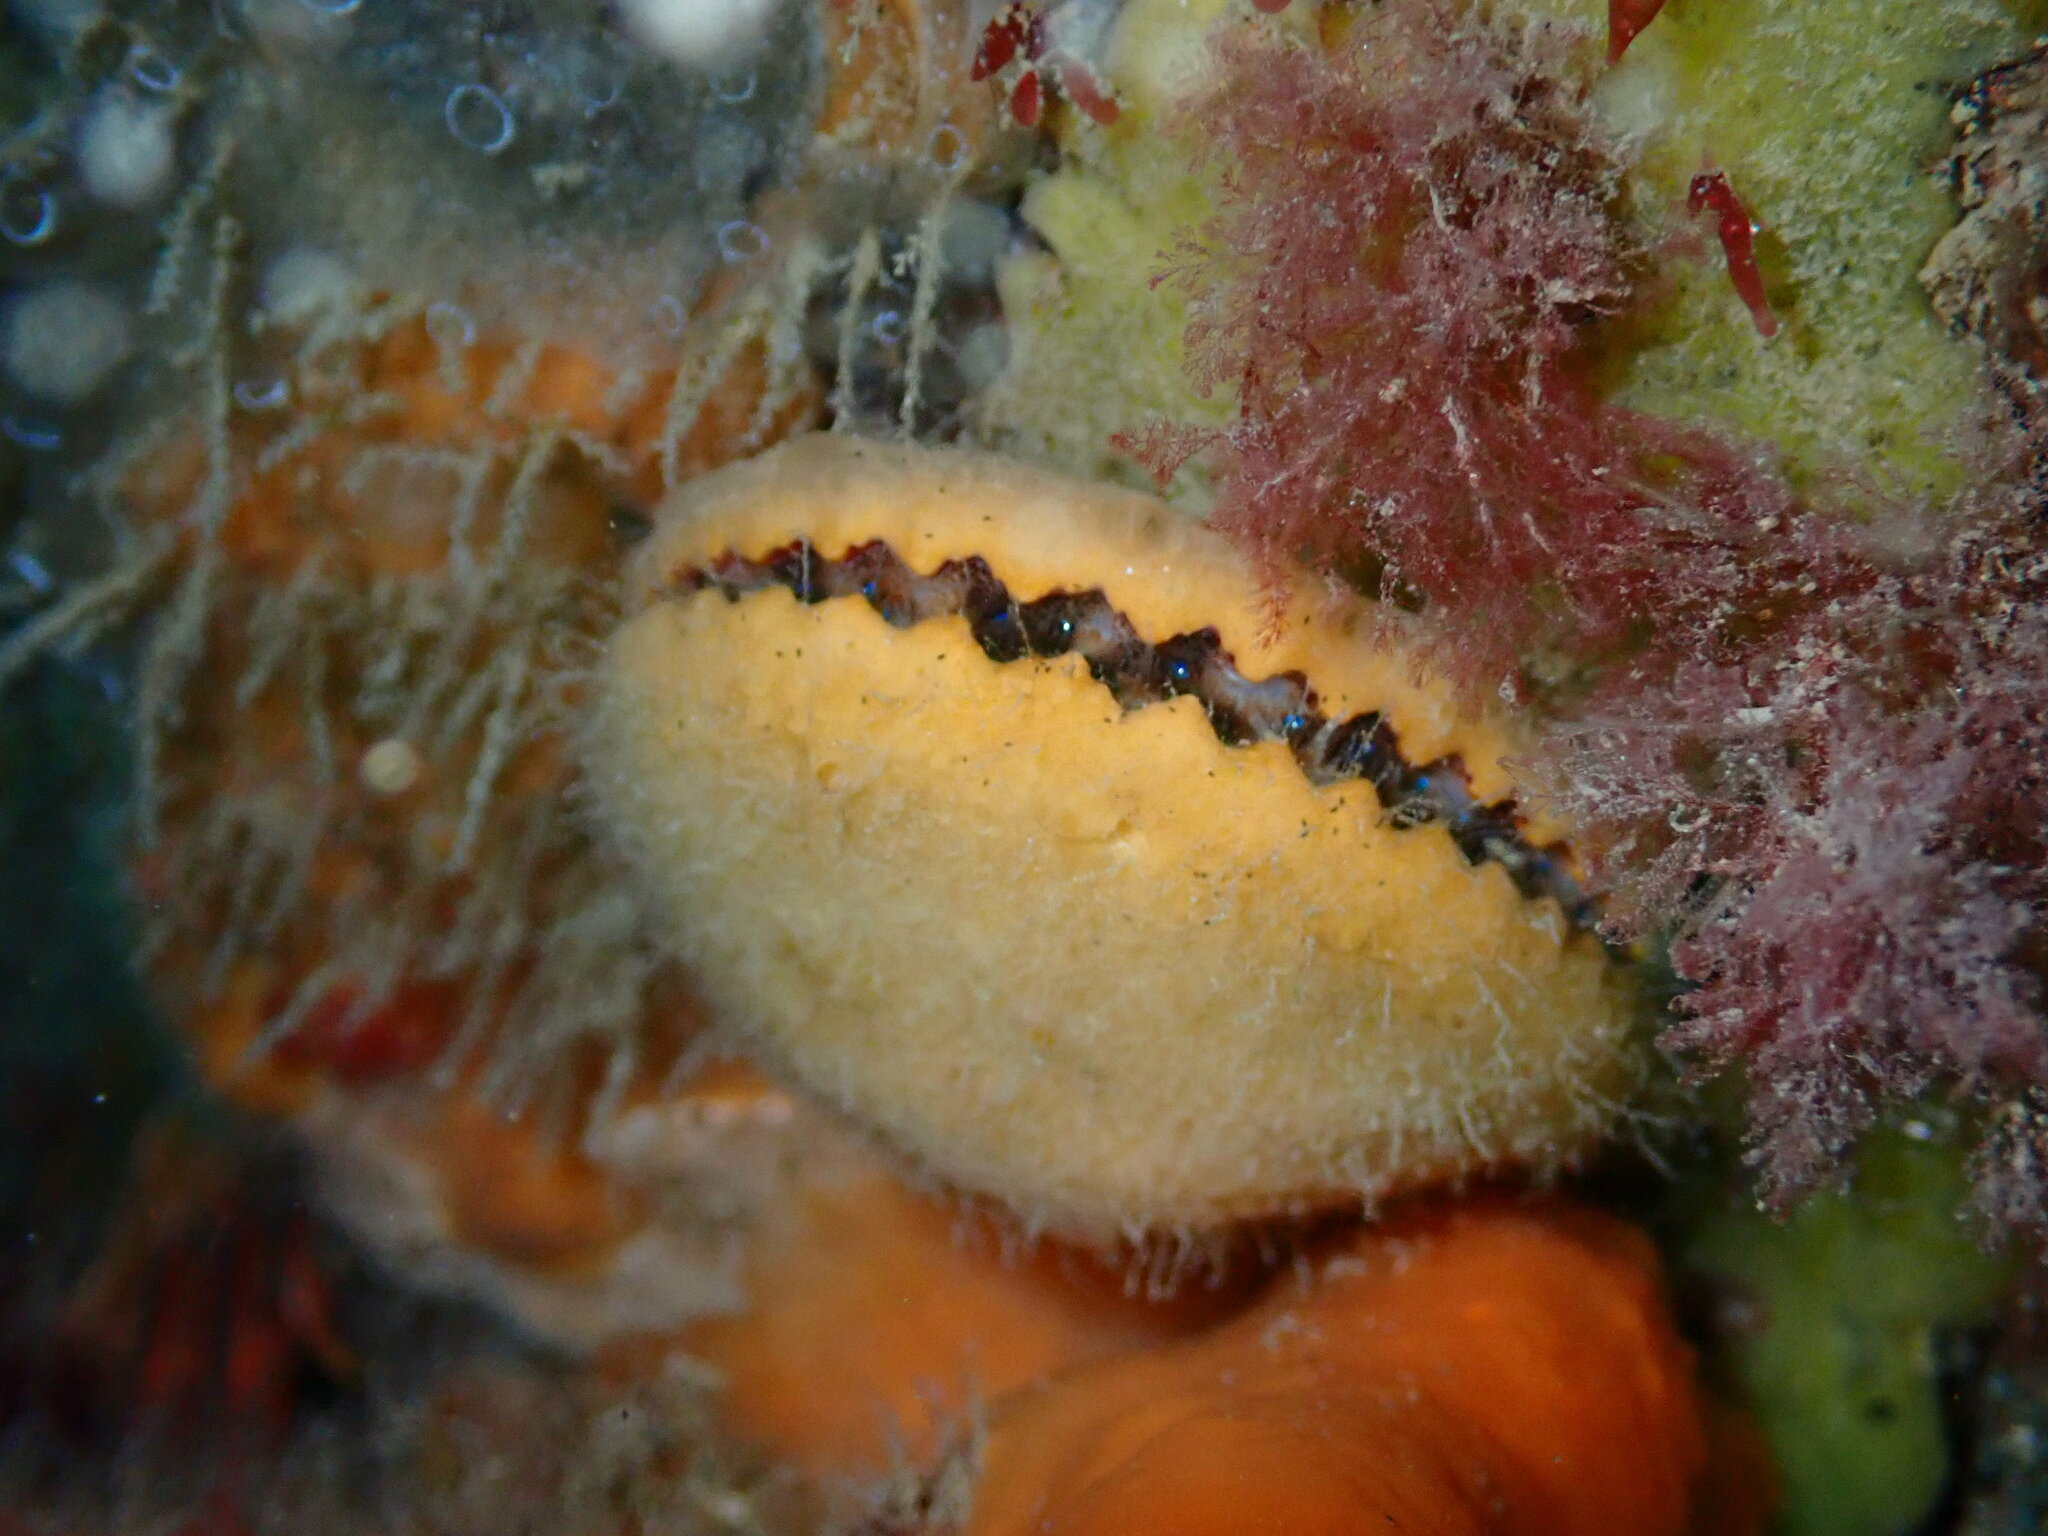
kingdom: Animalia
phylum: Mollusca
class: Bivalvia
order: Pectinida
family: Pectinidae
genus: Mimachlamys
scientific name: Mimachlamys asperrima
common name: Austral scallop
